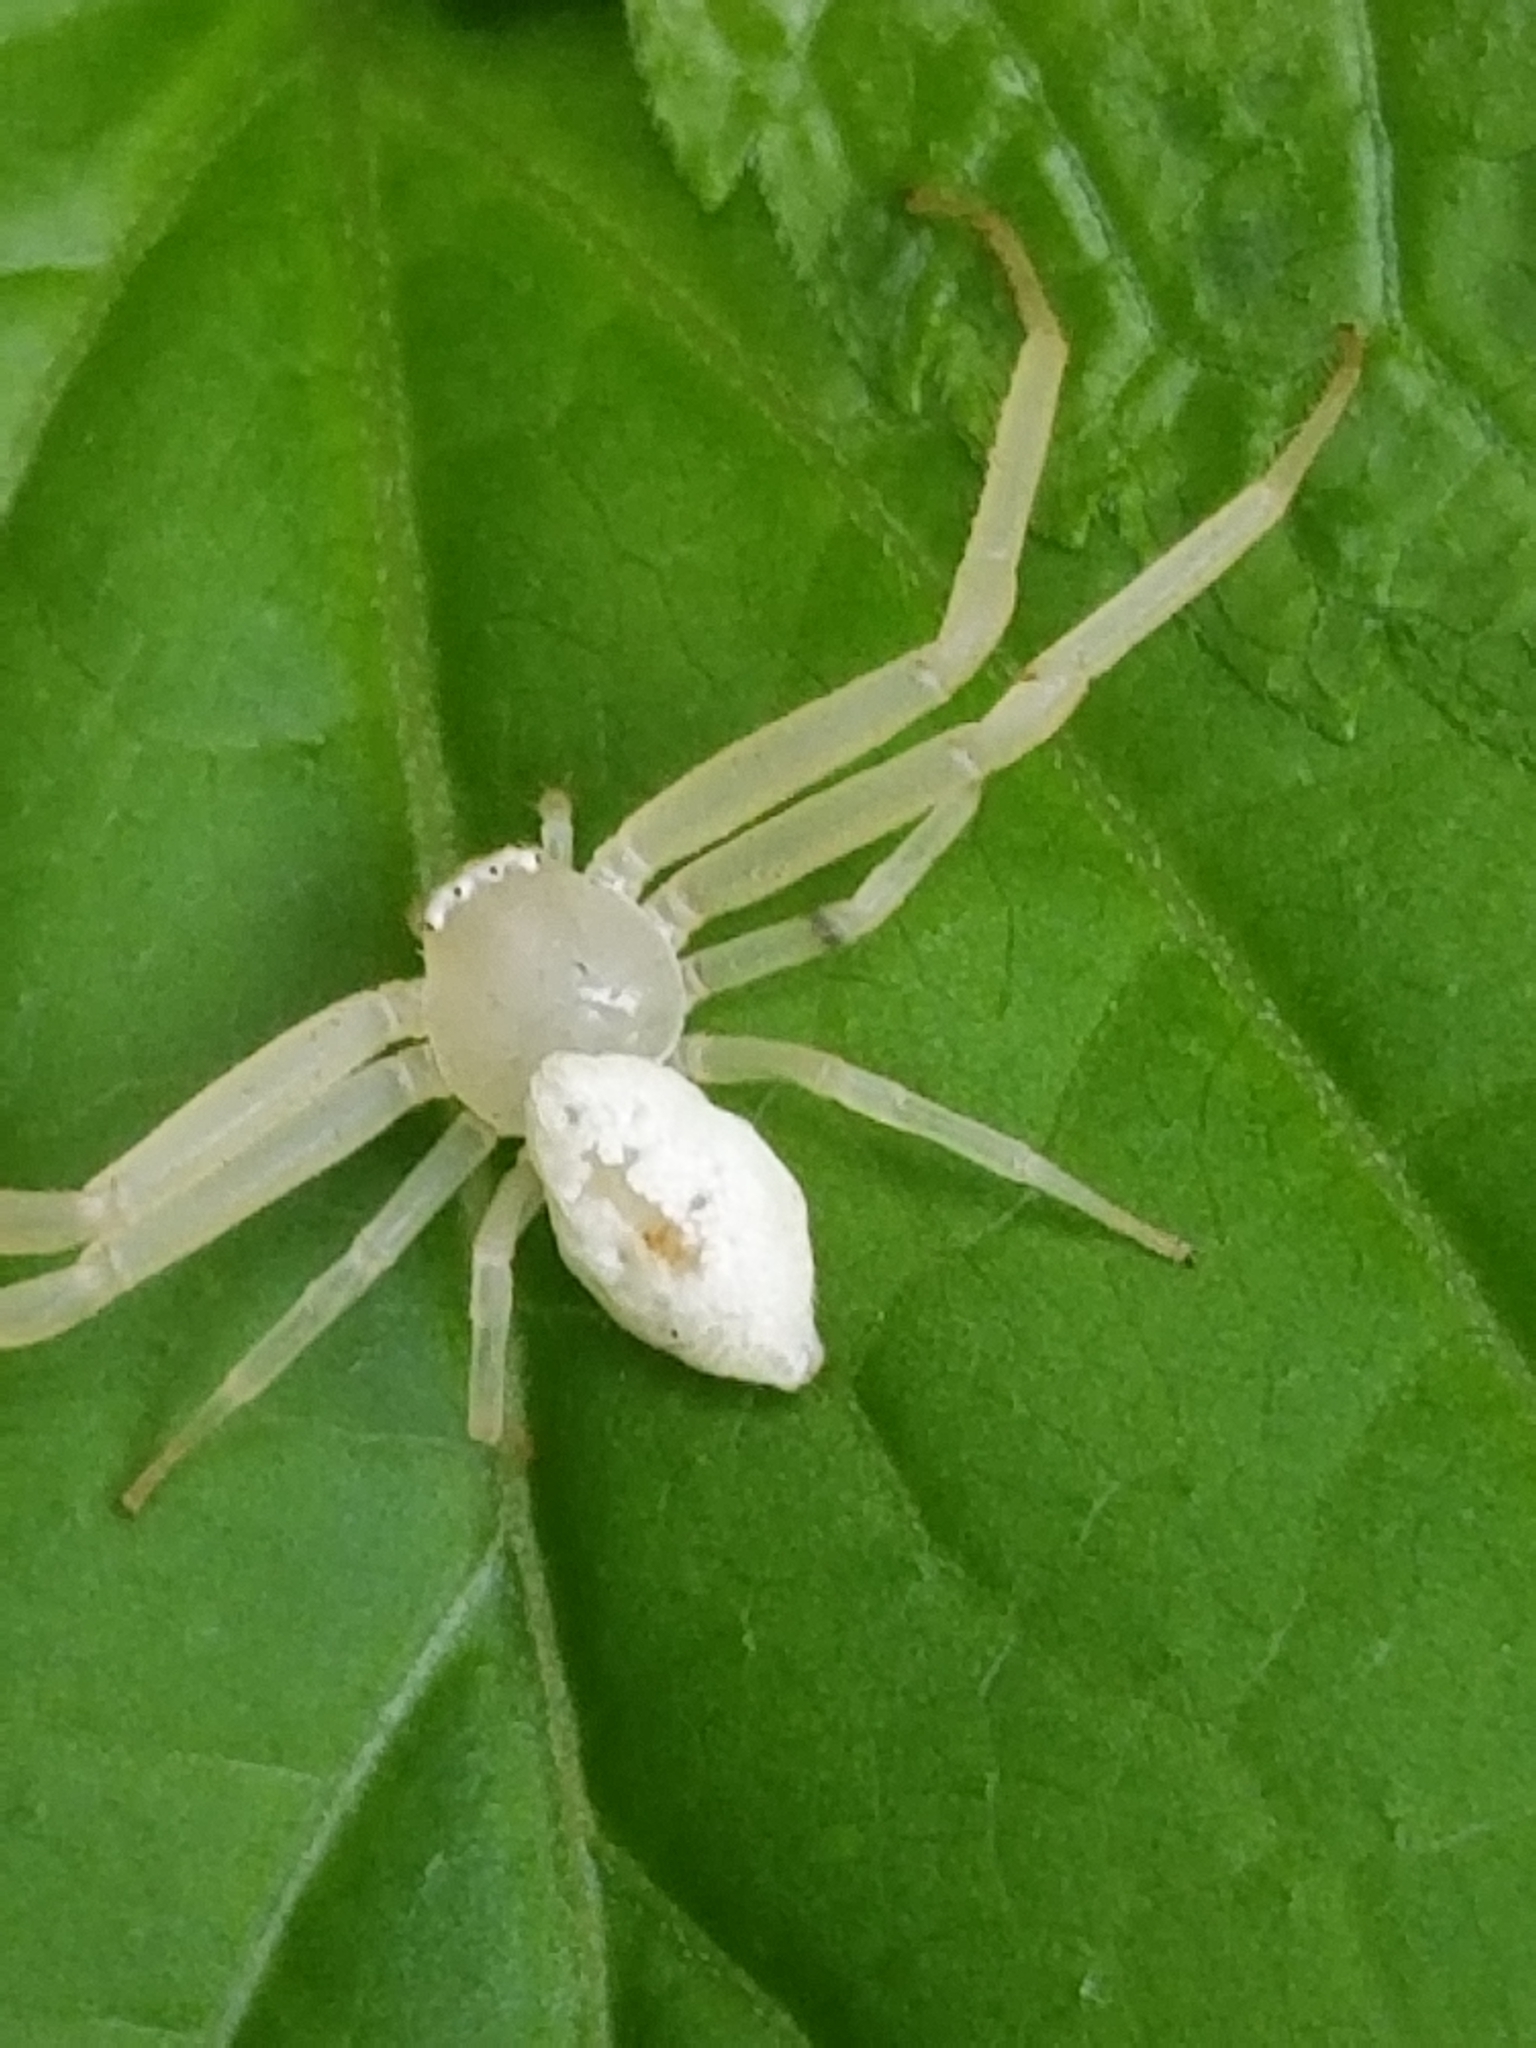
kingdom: Animalia
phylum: Arthropoda
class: Arachnida
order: Araneae
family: Thomisidae
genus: Misumessus
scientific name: Misumessus oblongus
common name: American green crab spider
